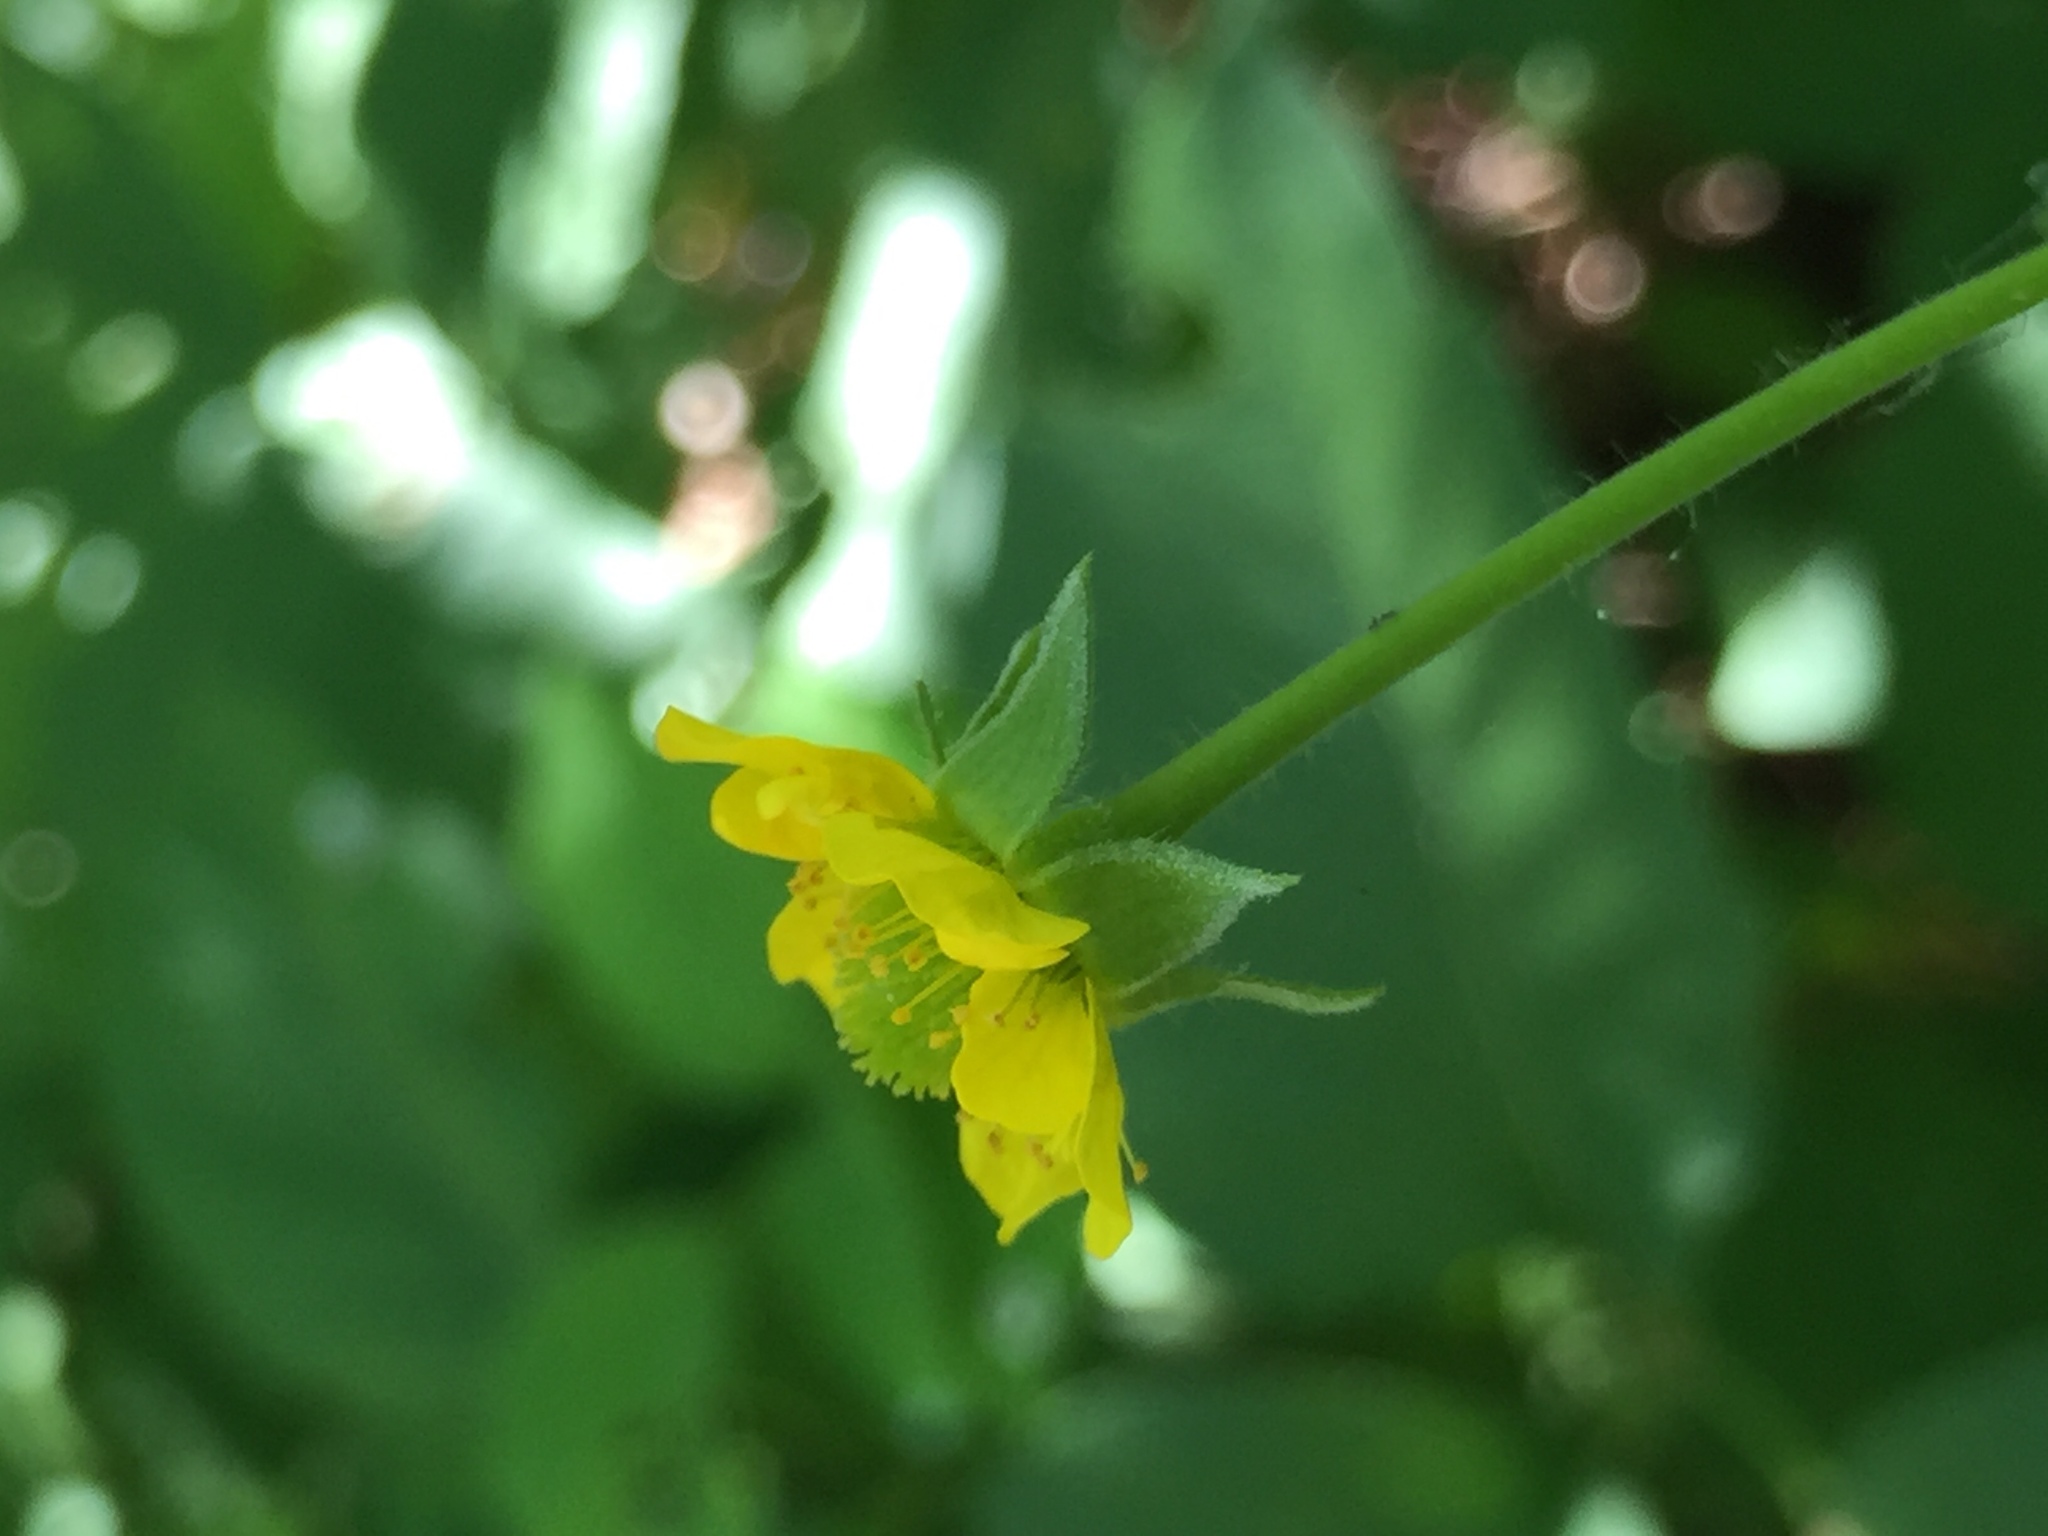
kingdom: Plantae
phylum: Tracheophyta
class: Magnoliopsida
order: Rosales
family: Rosaceae
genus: Geum
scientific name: Geum aleppicum
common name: Yellow avens
